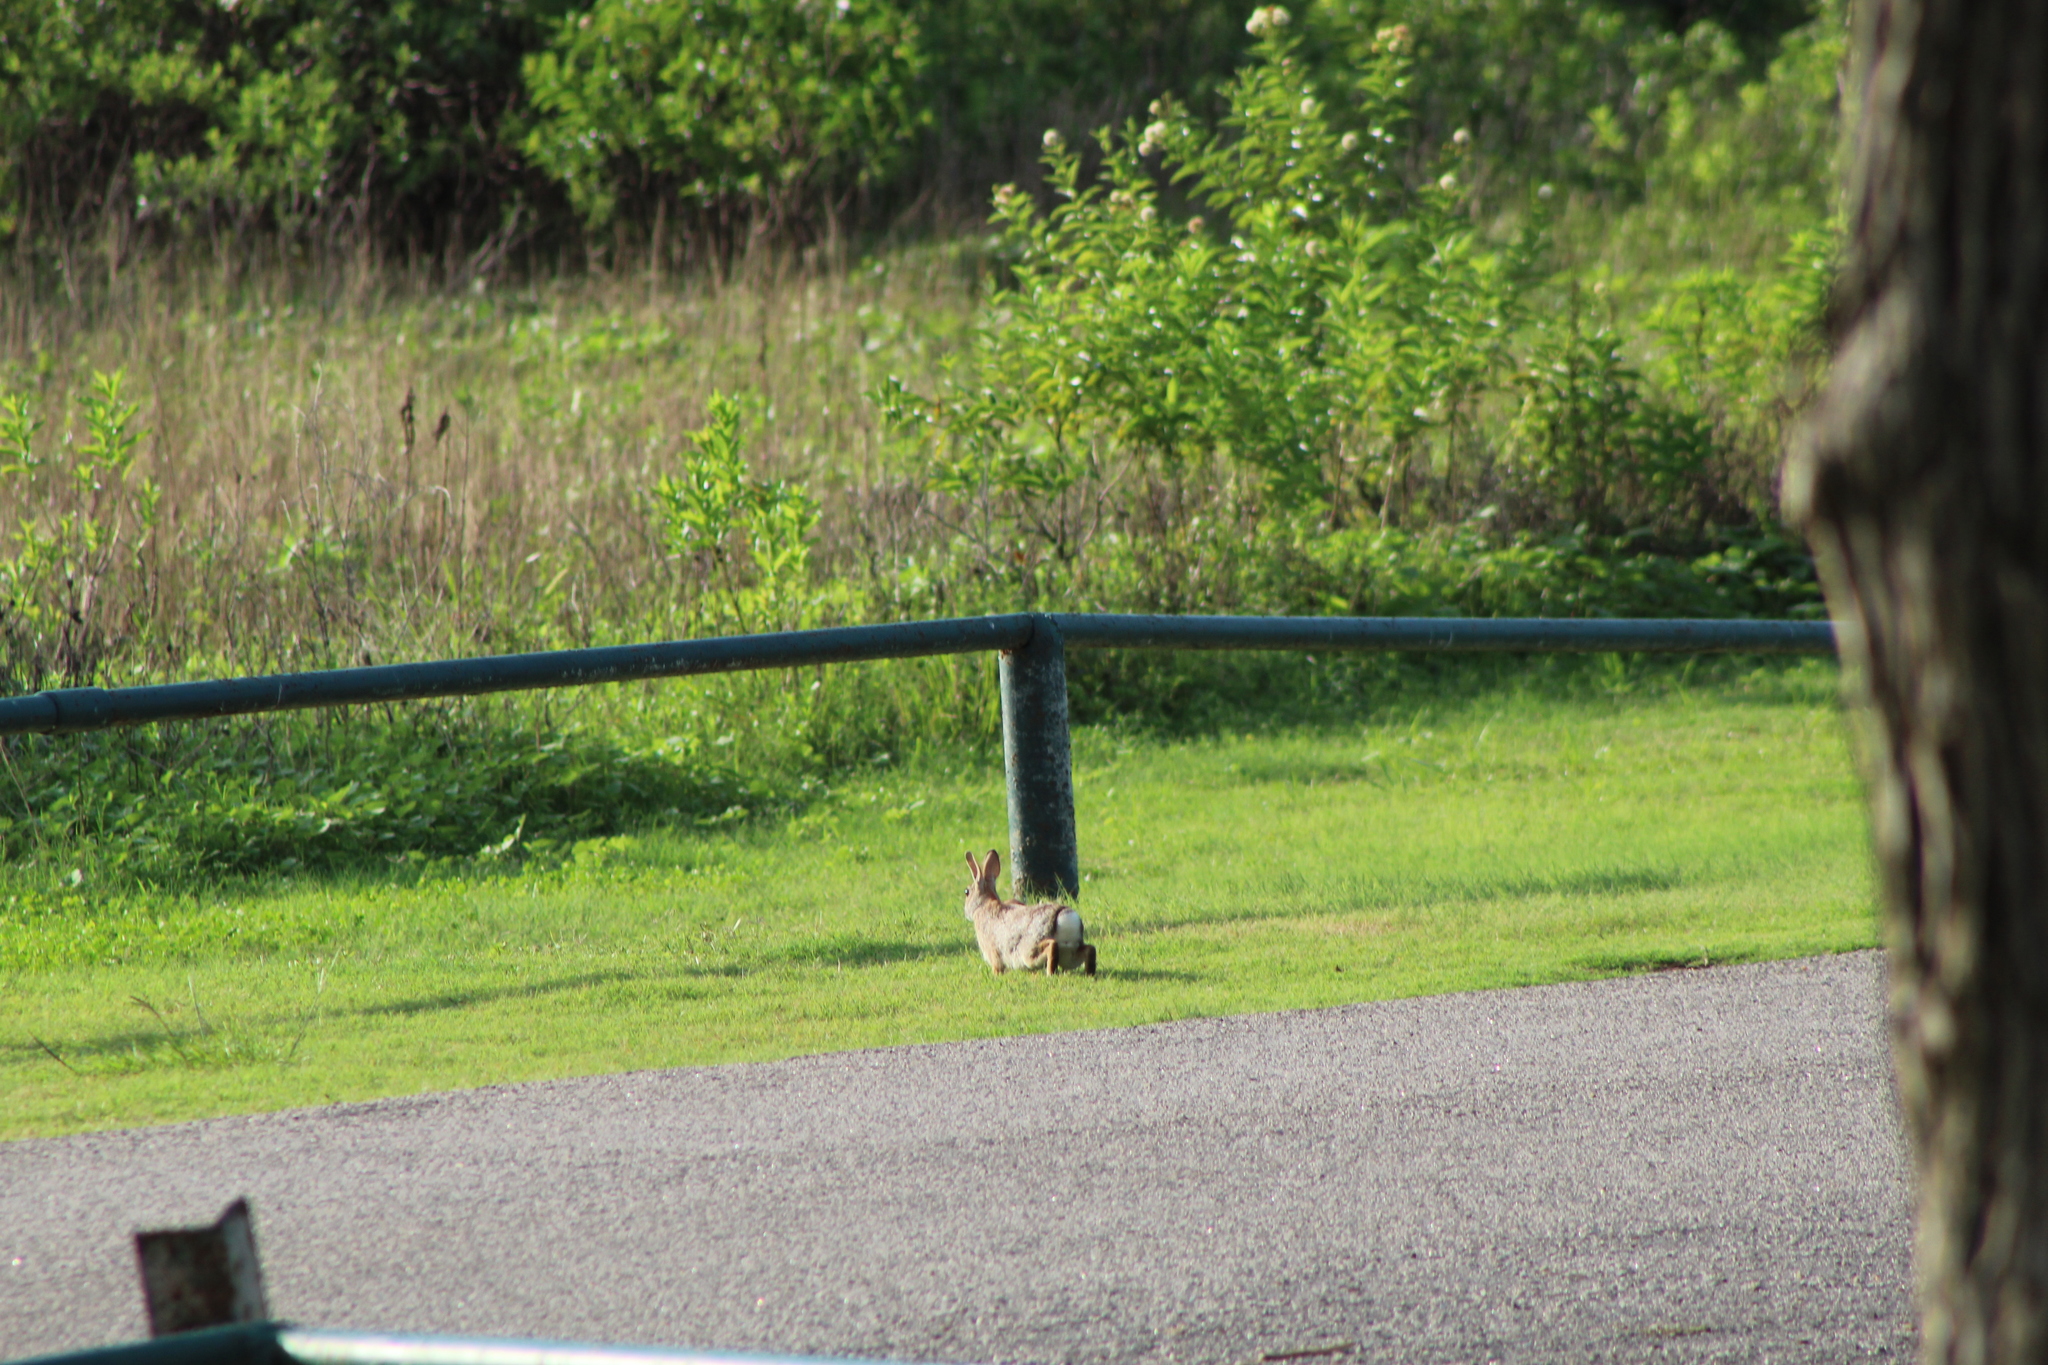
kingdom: Animalia
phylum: Chordata
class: Mammalia
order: Lagomorpha
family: Leporidae
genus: Sylvilagus
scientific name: Sylvilagus floridanus
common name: Eastern cottontail
